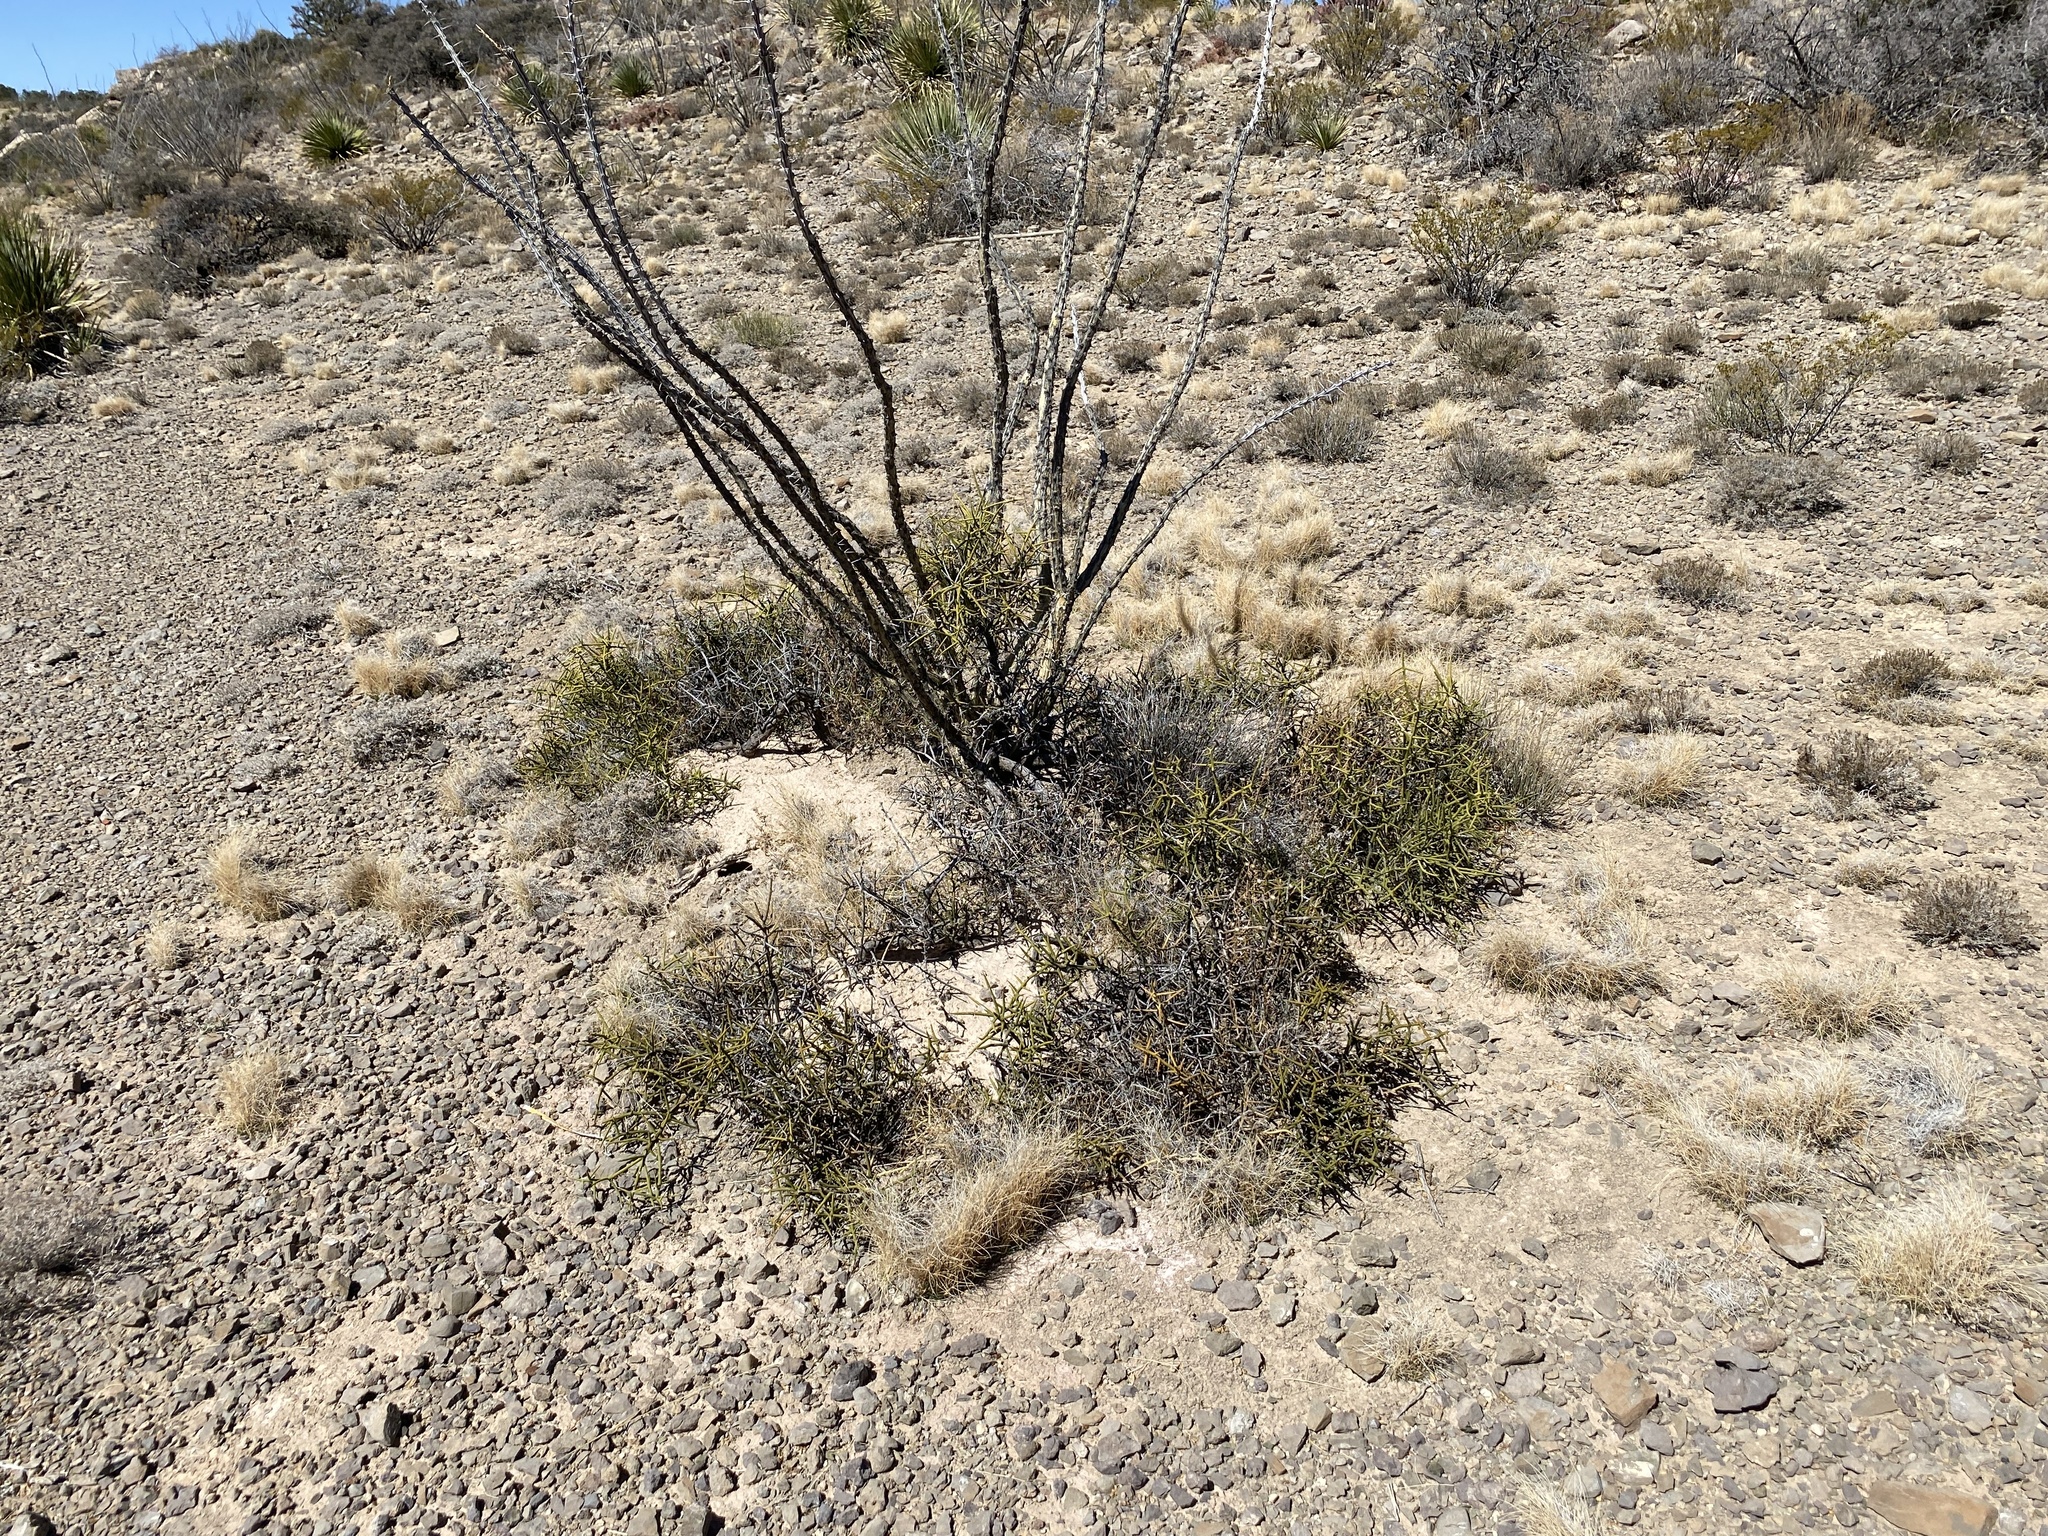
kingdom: Plantae
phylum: Tracheophyta
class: Magnoliopsida
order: Brassicales
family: Koeberliniaceae
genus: Koeberlinia
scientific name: Koeberlinia spinosa
